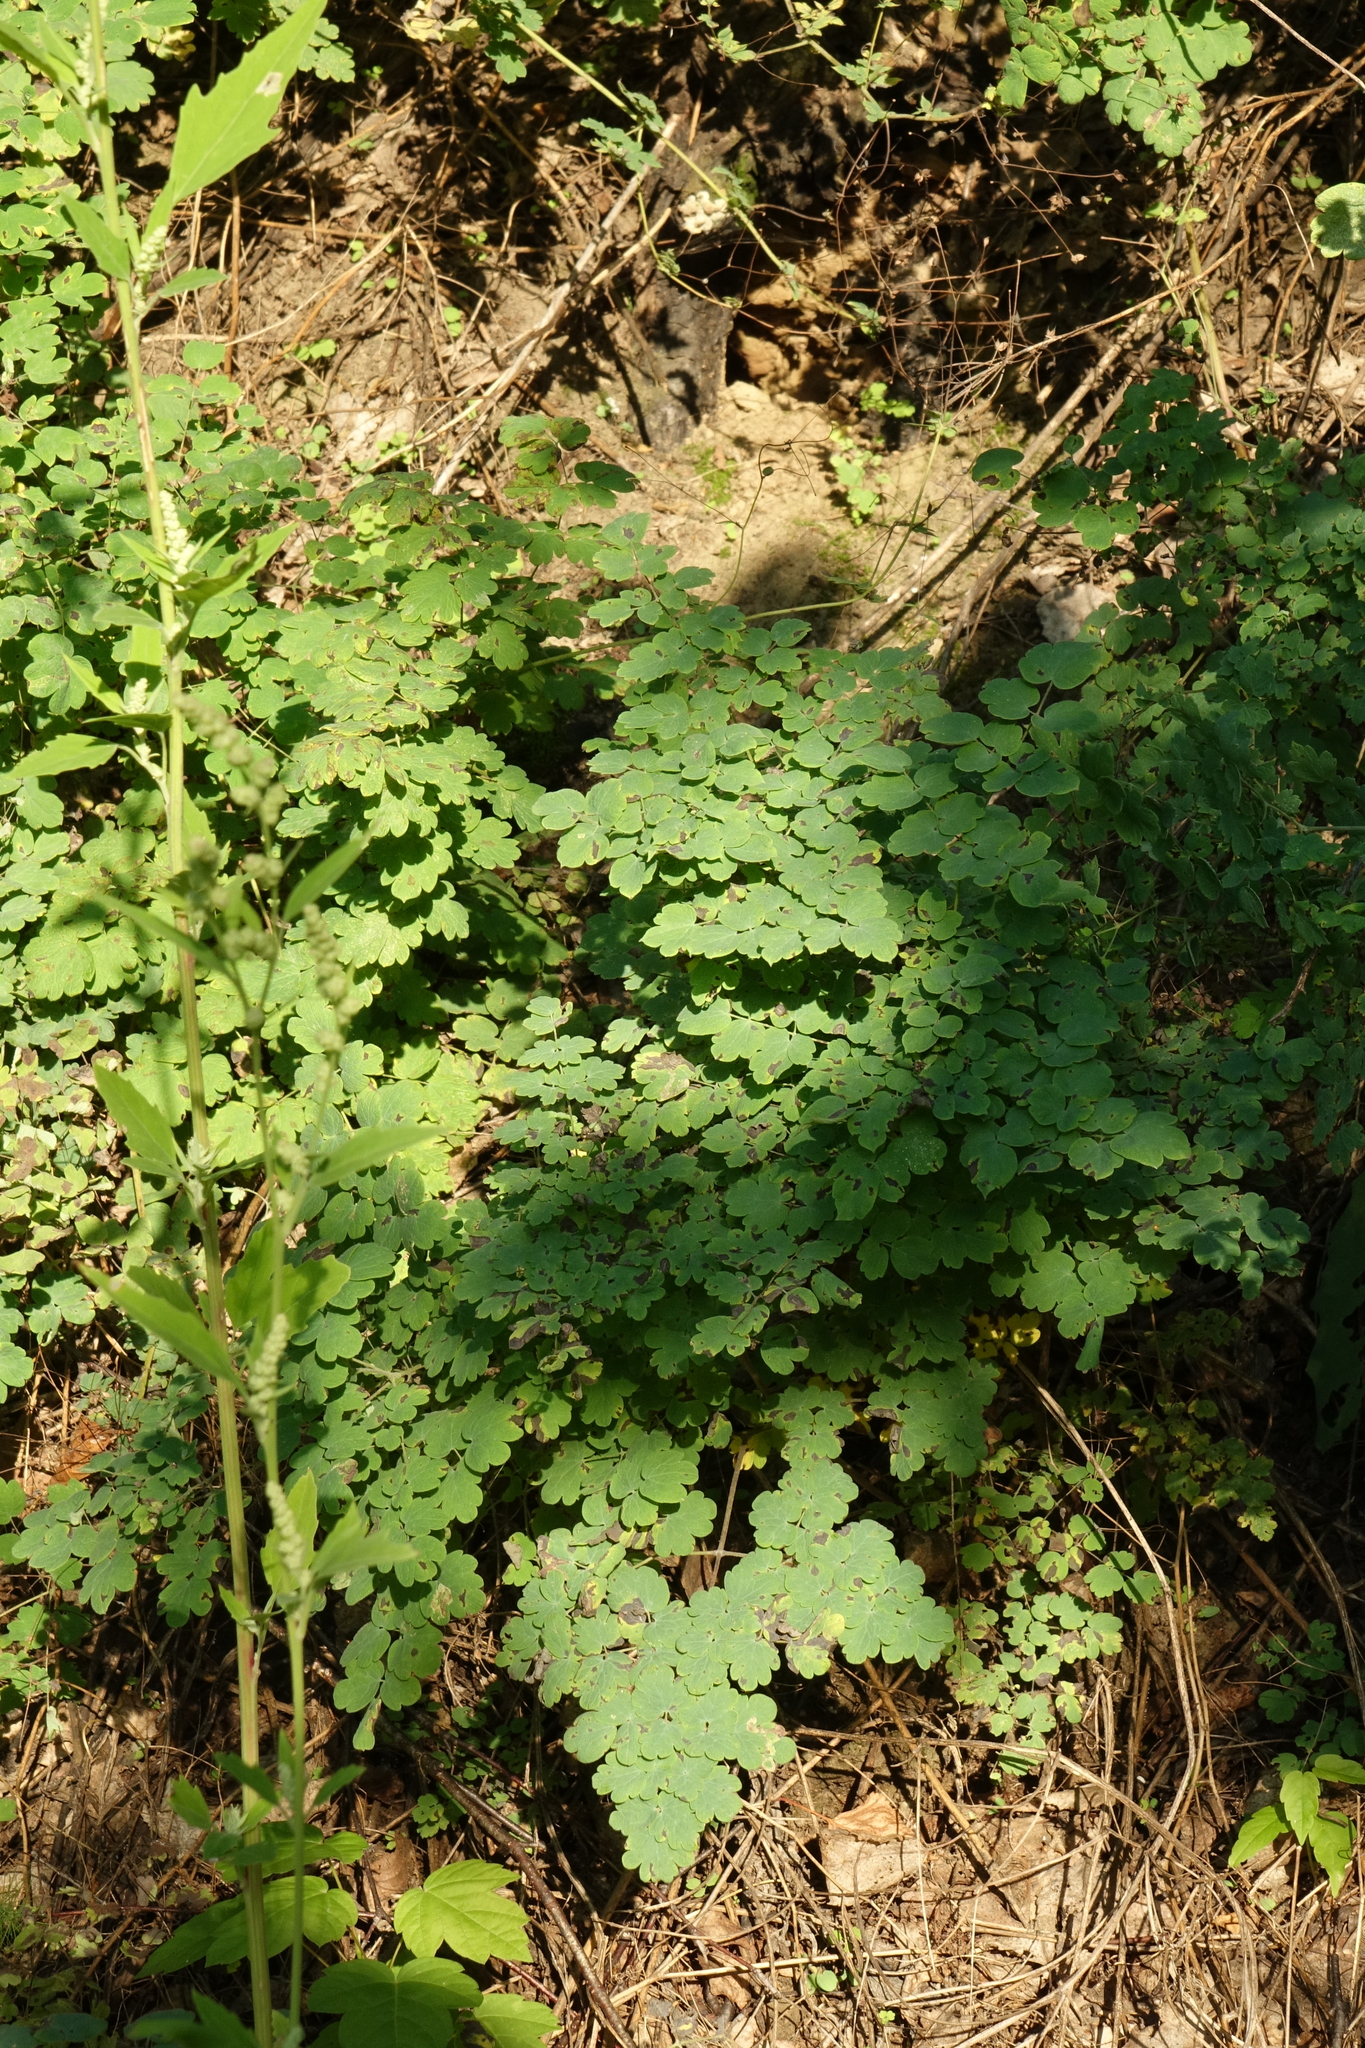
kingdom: Plantae
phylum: Tracheophyta
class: Magnoliopsida
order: Ranunculales
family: Ranunculaceae
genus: Thalictrum
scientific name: Thalictrum foetidum
